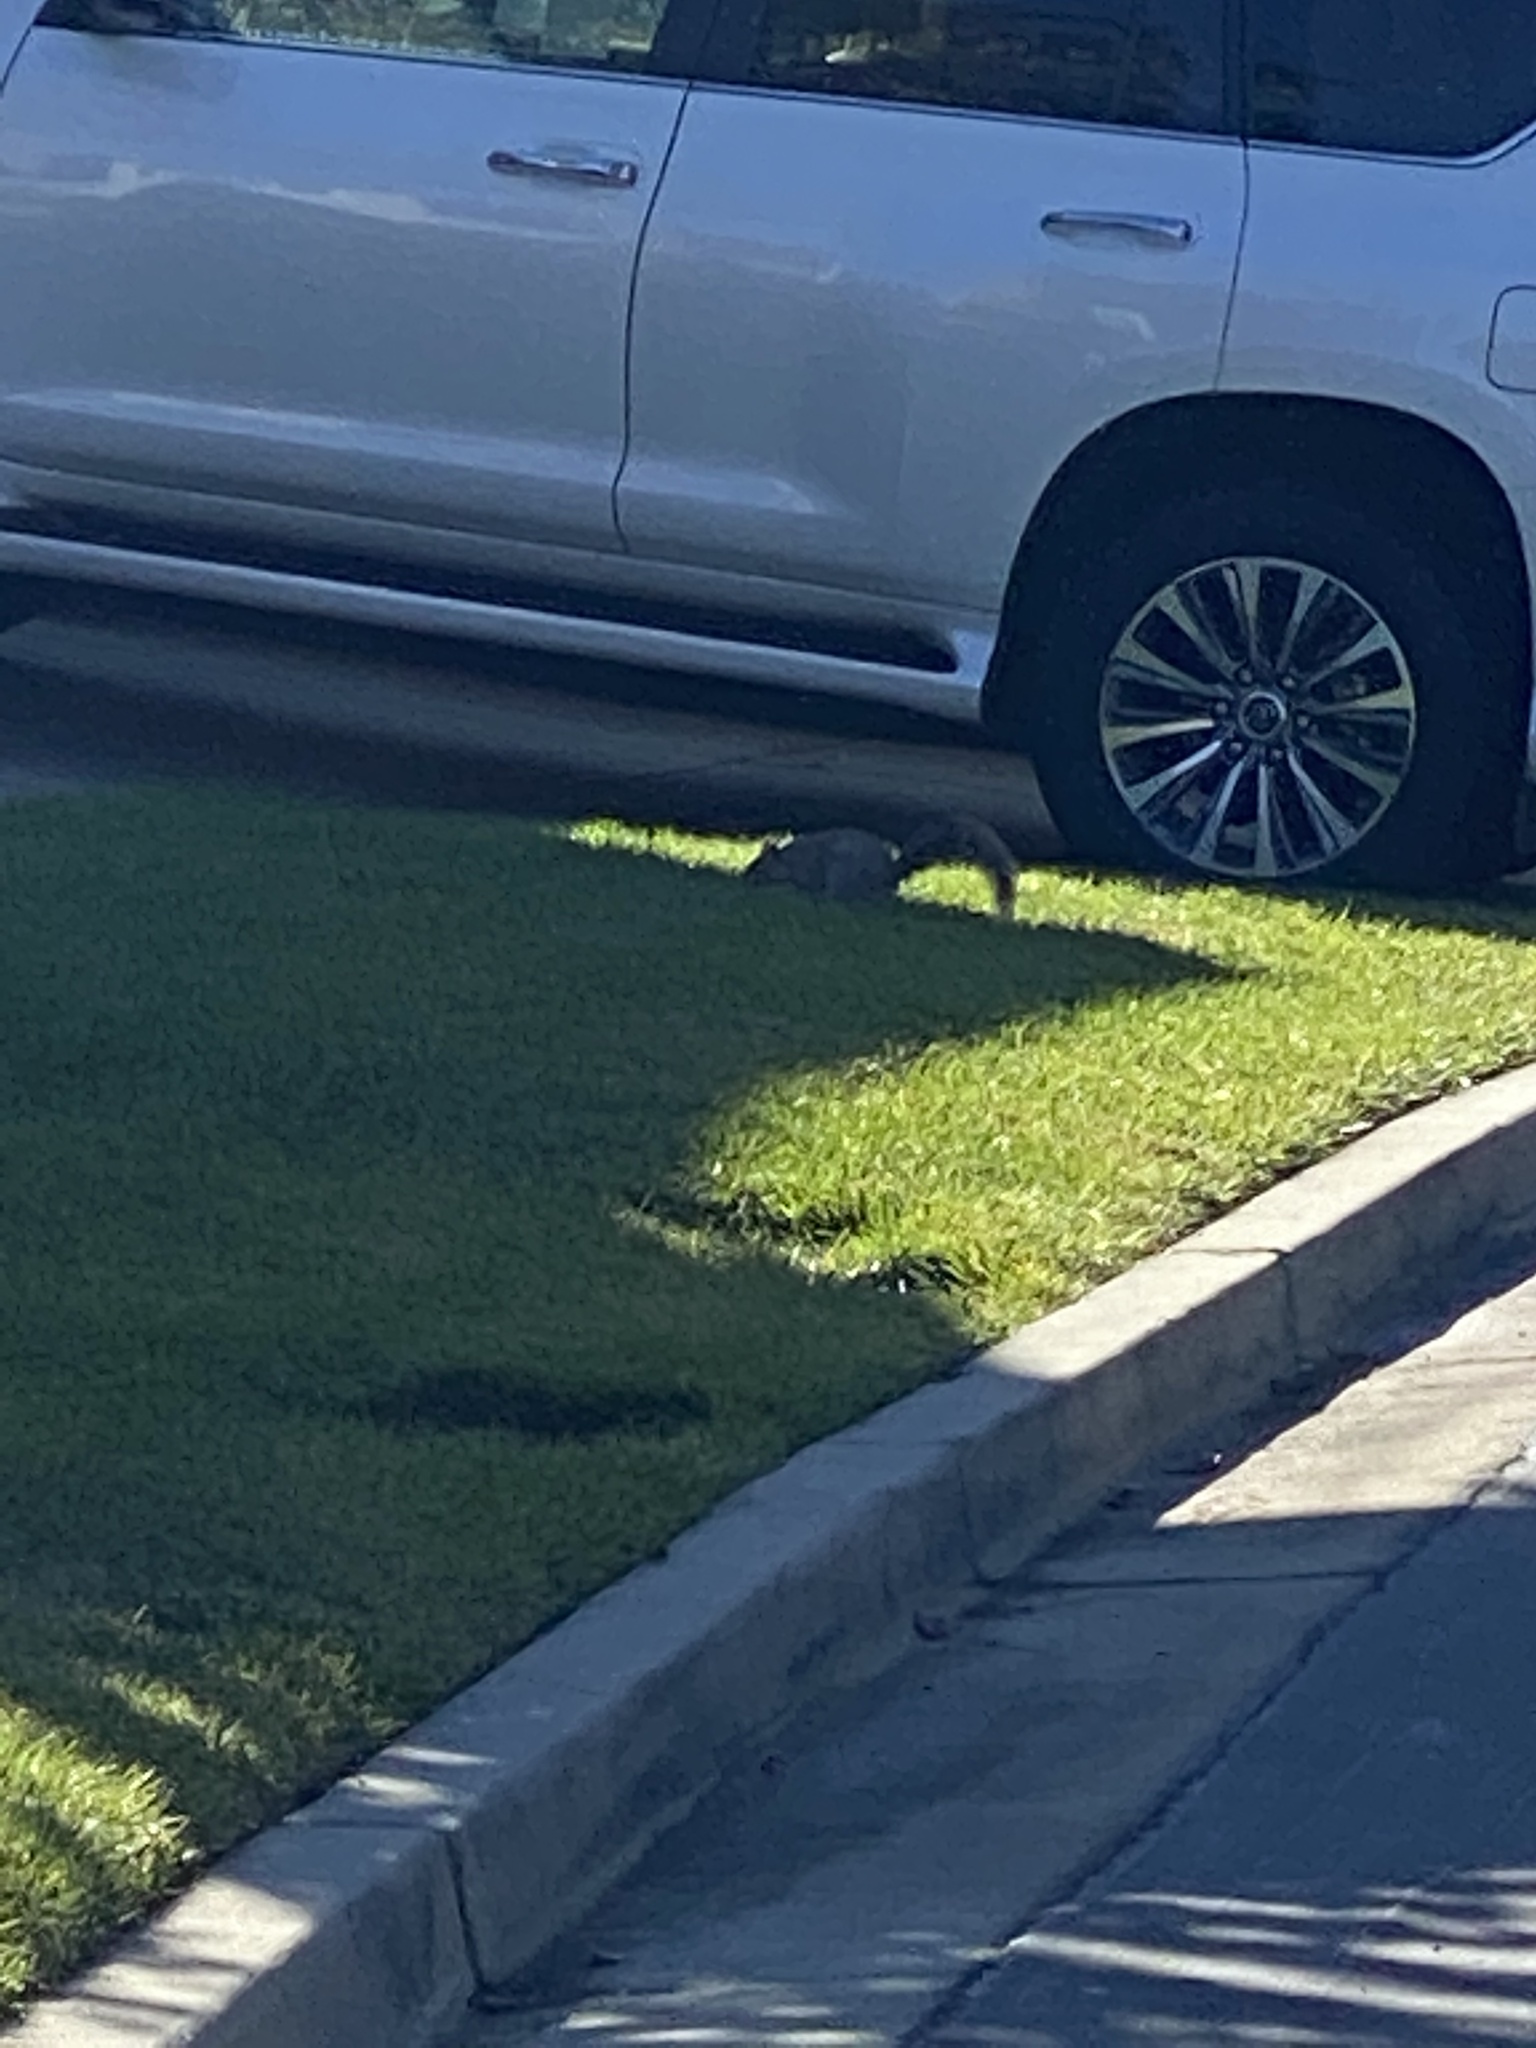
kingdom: Animalia
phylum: Chordata
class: Mammalia
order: Rodentia
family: Sciuridae
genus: Sciurus
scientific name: Sciurus carolinensis
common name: Eastern gray squirrel
